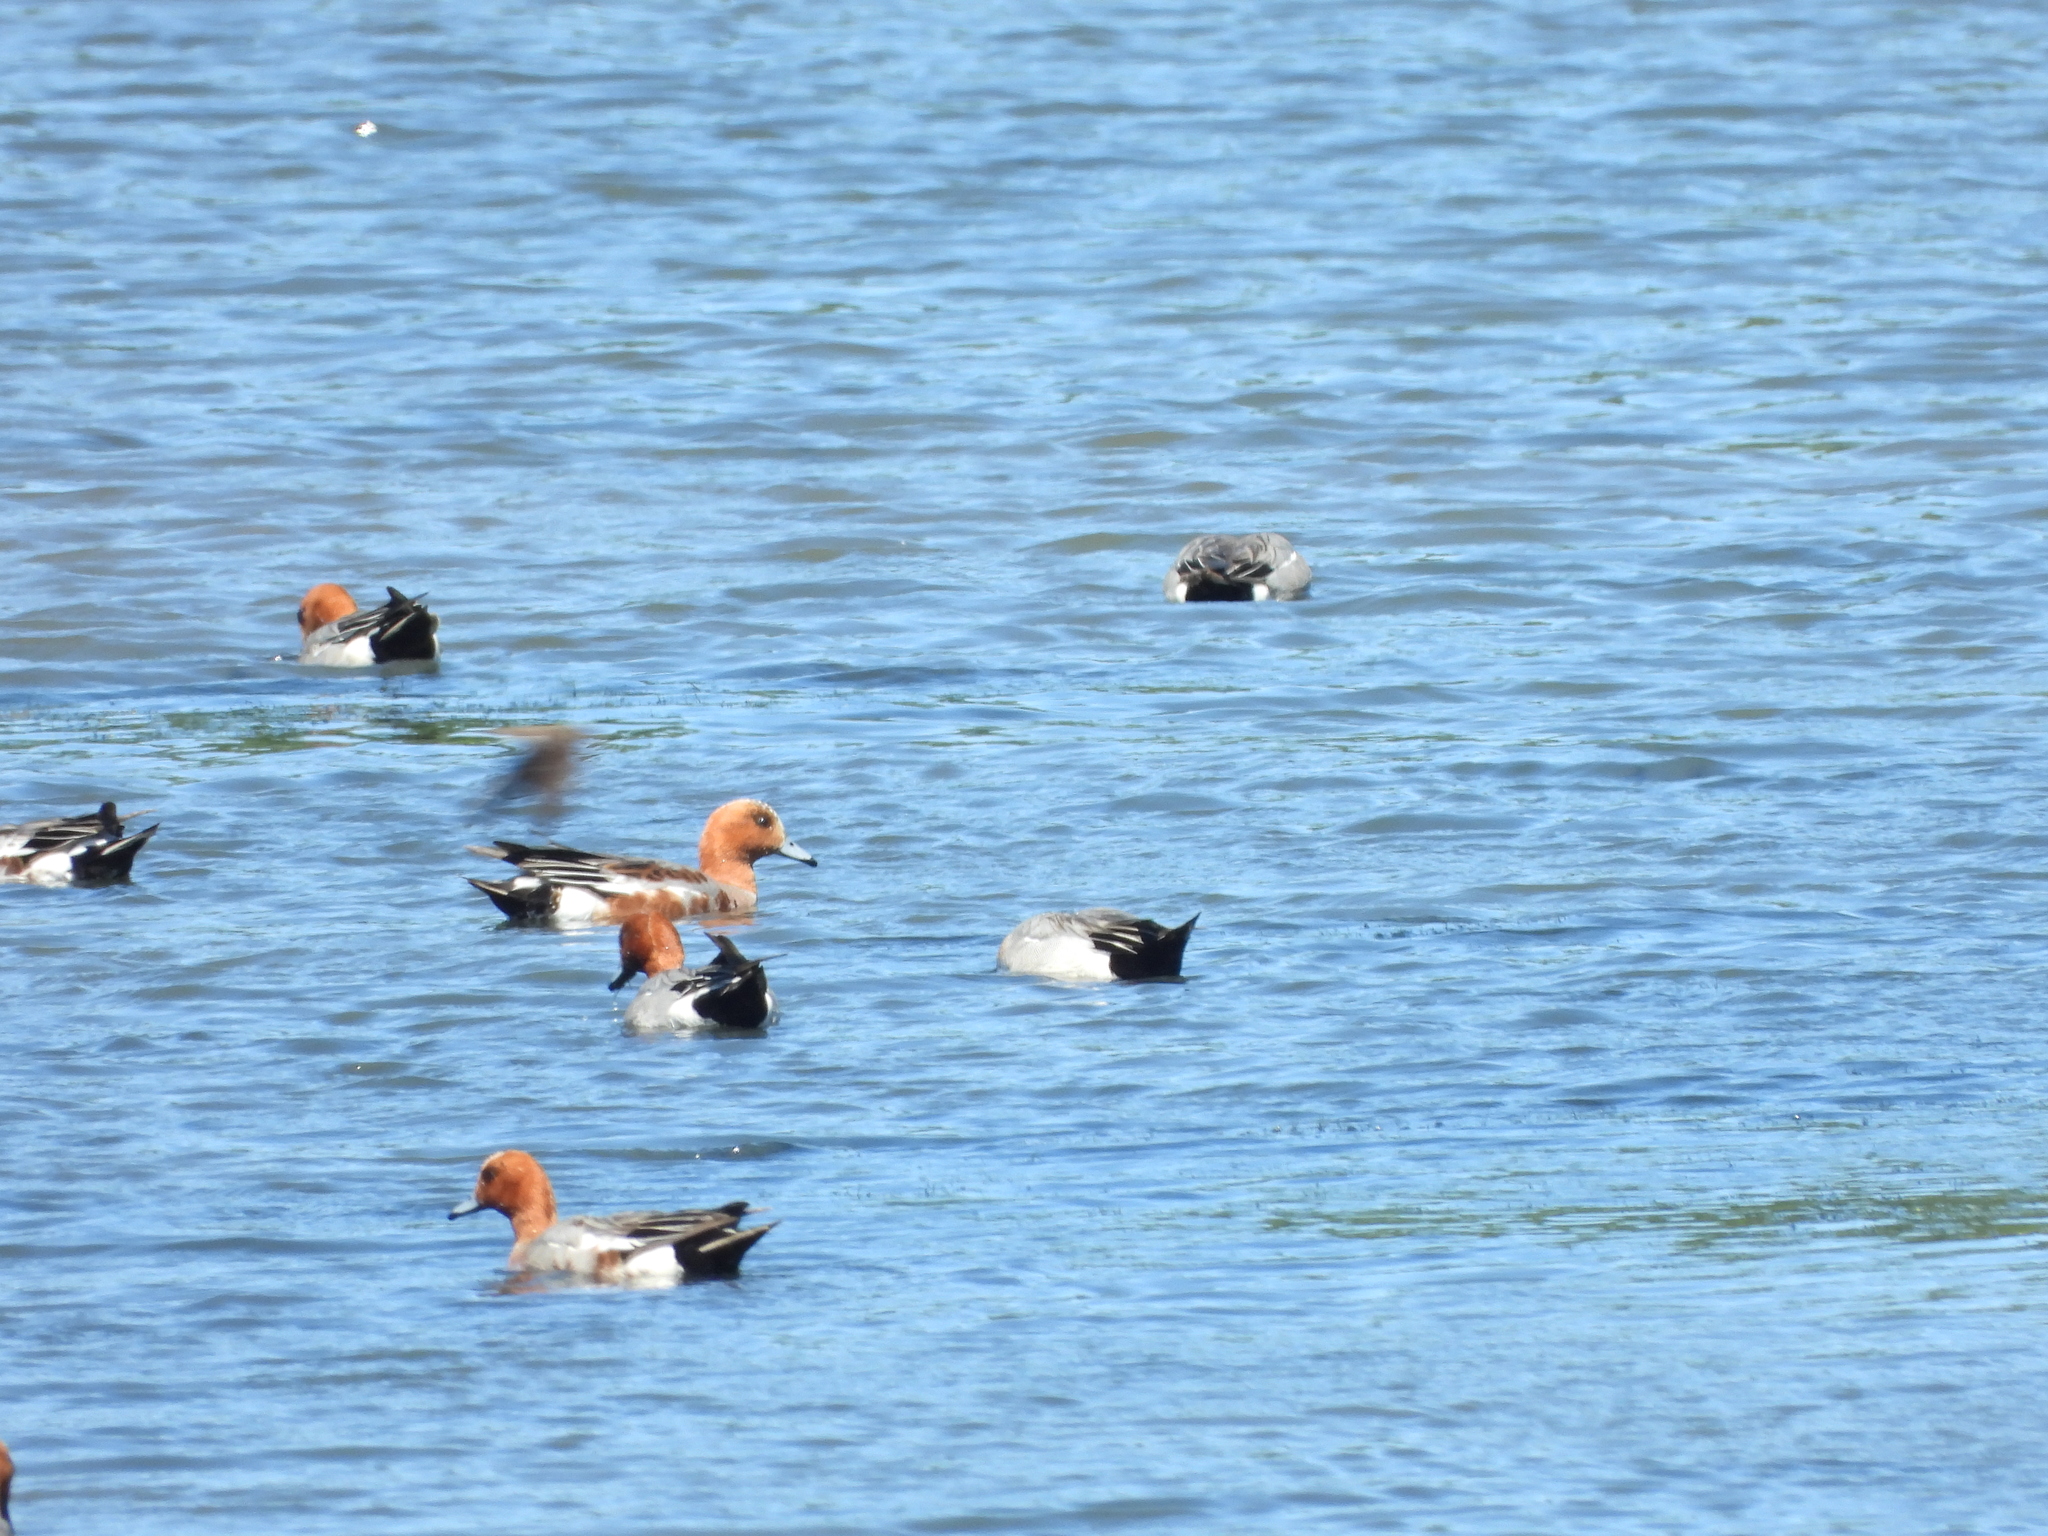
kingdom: Animalia
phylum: Chordata
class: Aves
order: Anseriformes
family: Anatidae
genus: Mareca
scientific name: Mareca penelope
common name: Eurasian wigeon
